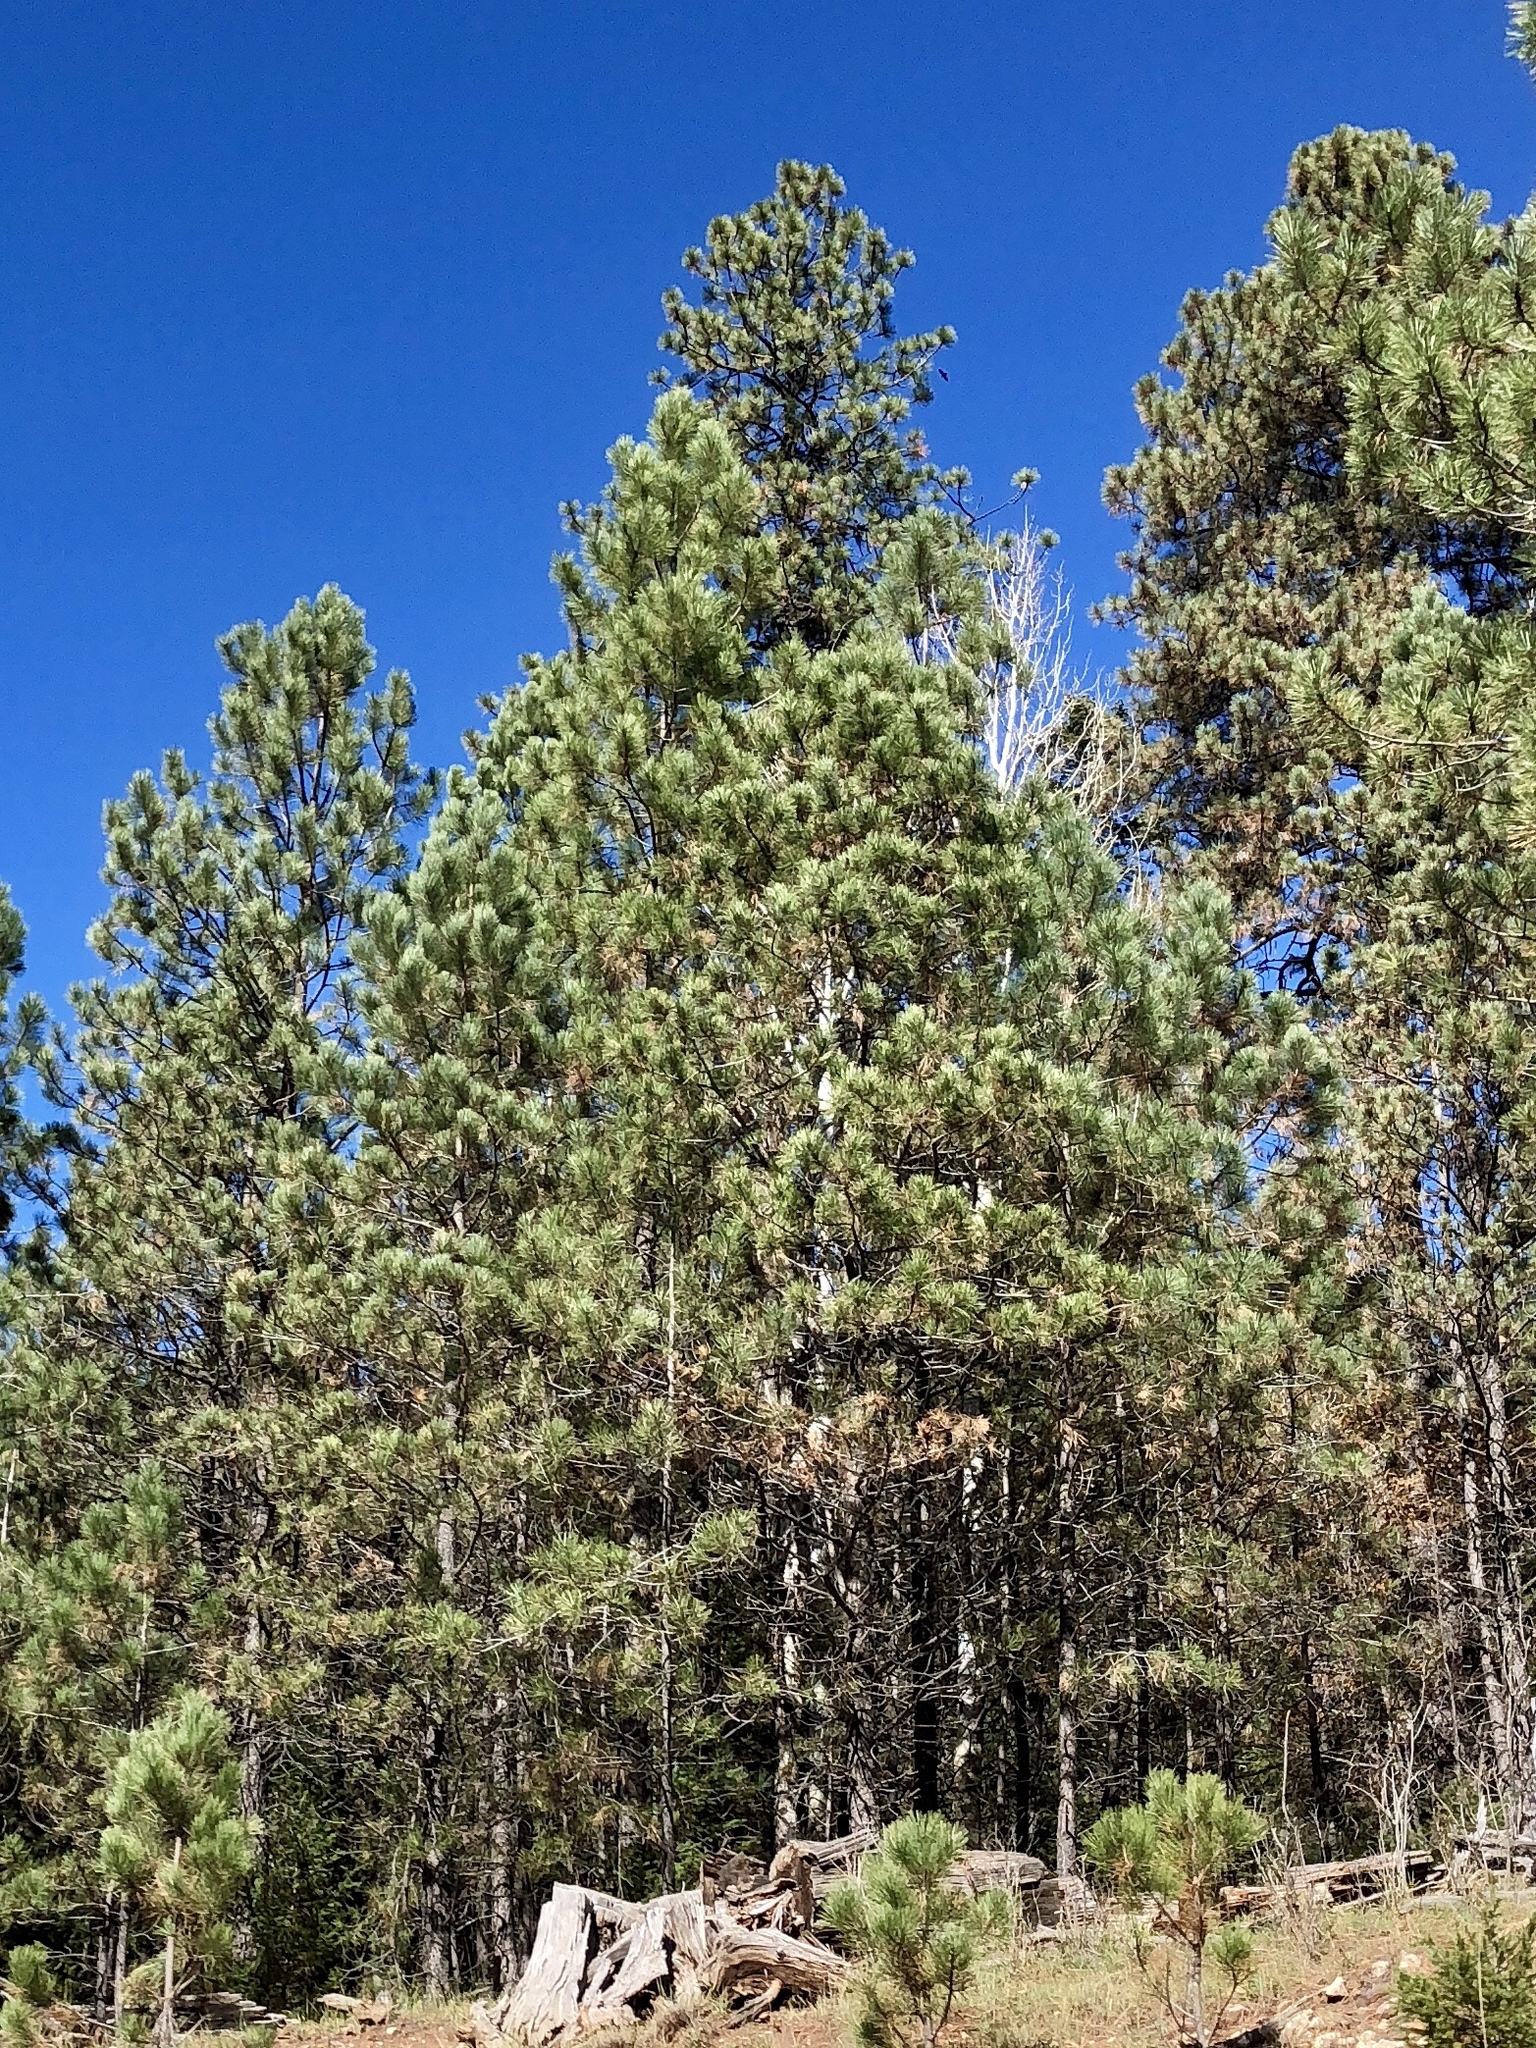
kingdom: Plantae
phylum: Tracheophyta
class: Pinopsida
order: Pinales
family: Pinaceae
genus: Pinus
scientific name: Pinus ponderosa
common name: Western yellow-pine
